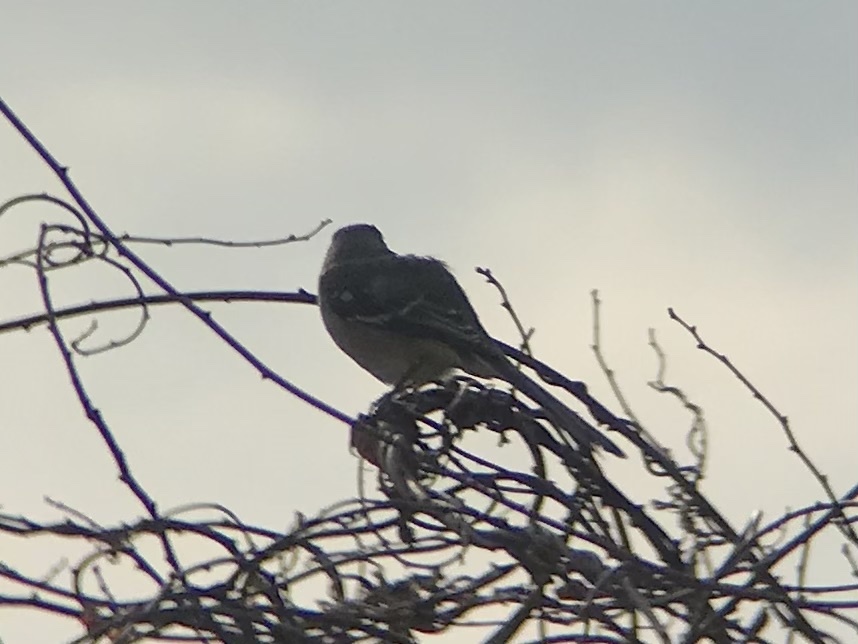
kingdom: Animalia
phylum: Chordata
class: Aves
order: Passeriformes
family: Mimidae
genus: Mimus
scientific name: Mimus polyglottos
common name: Northern mockingbird
